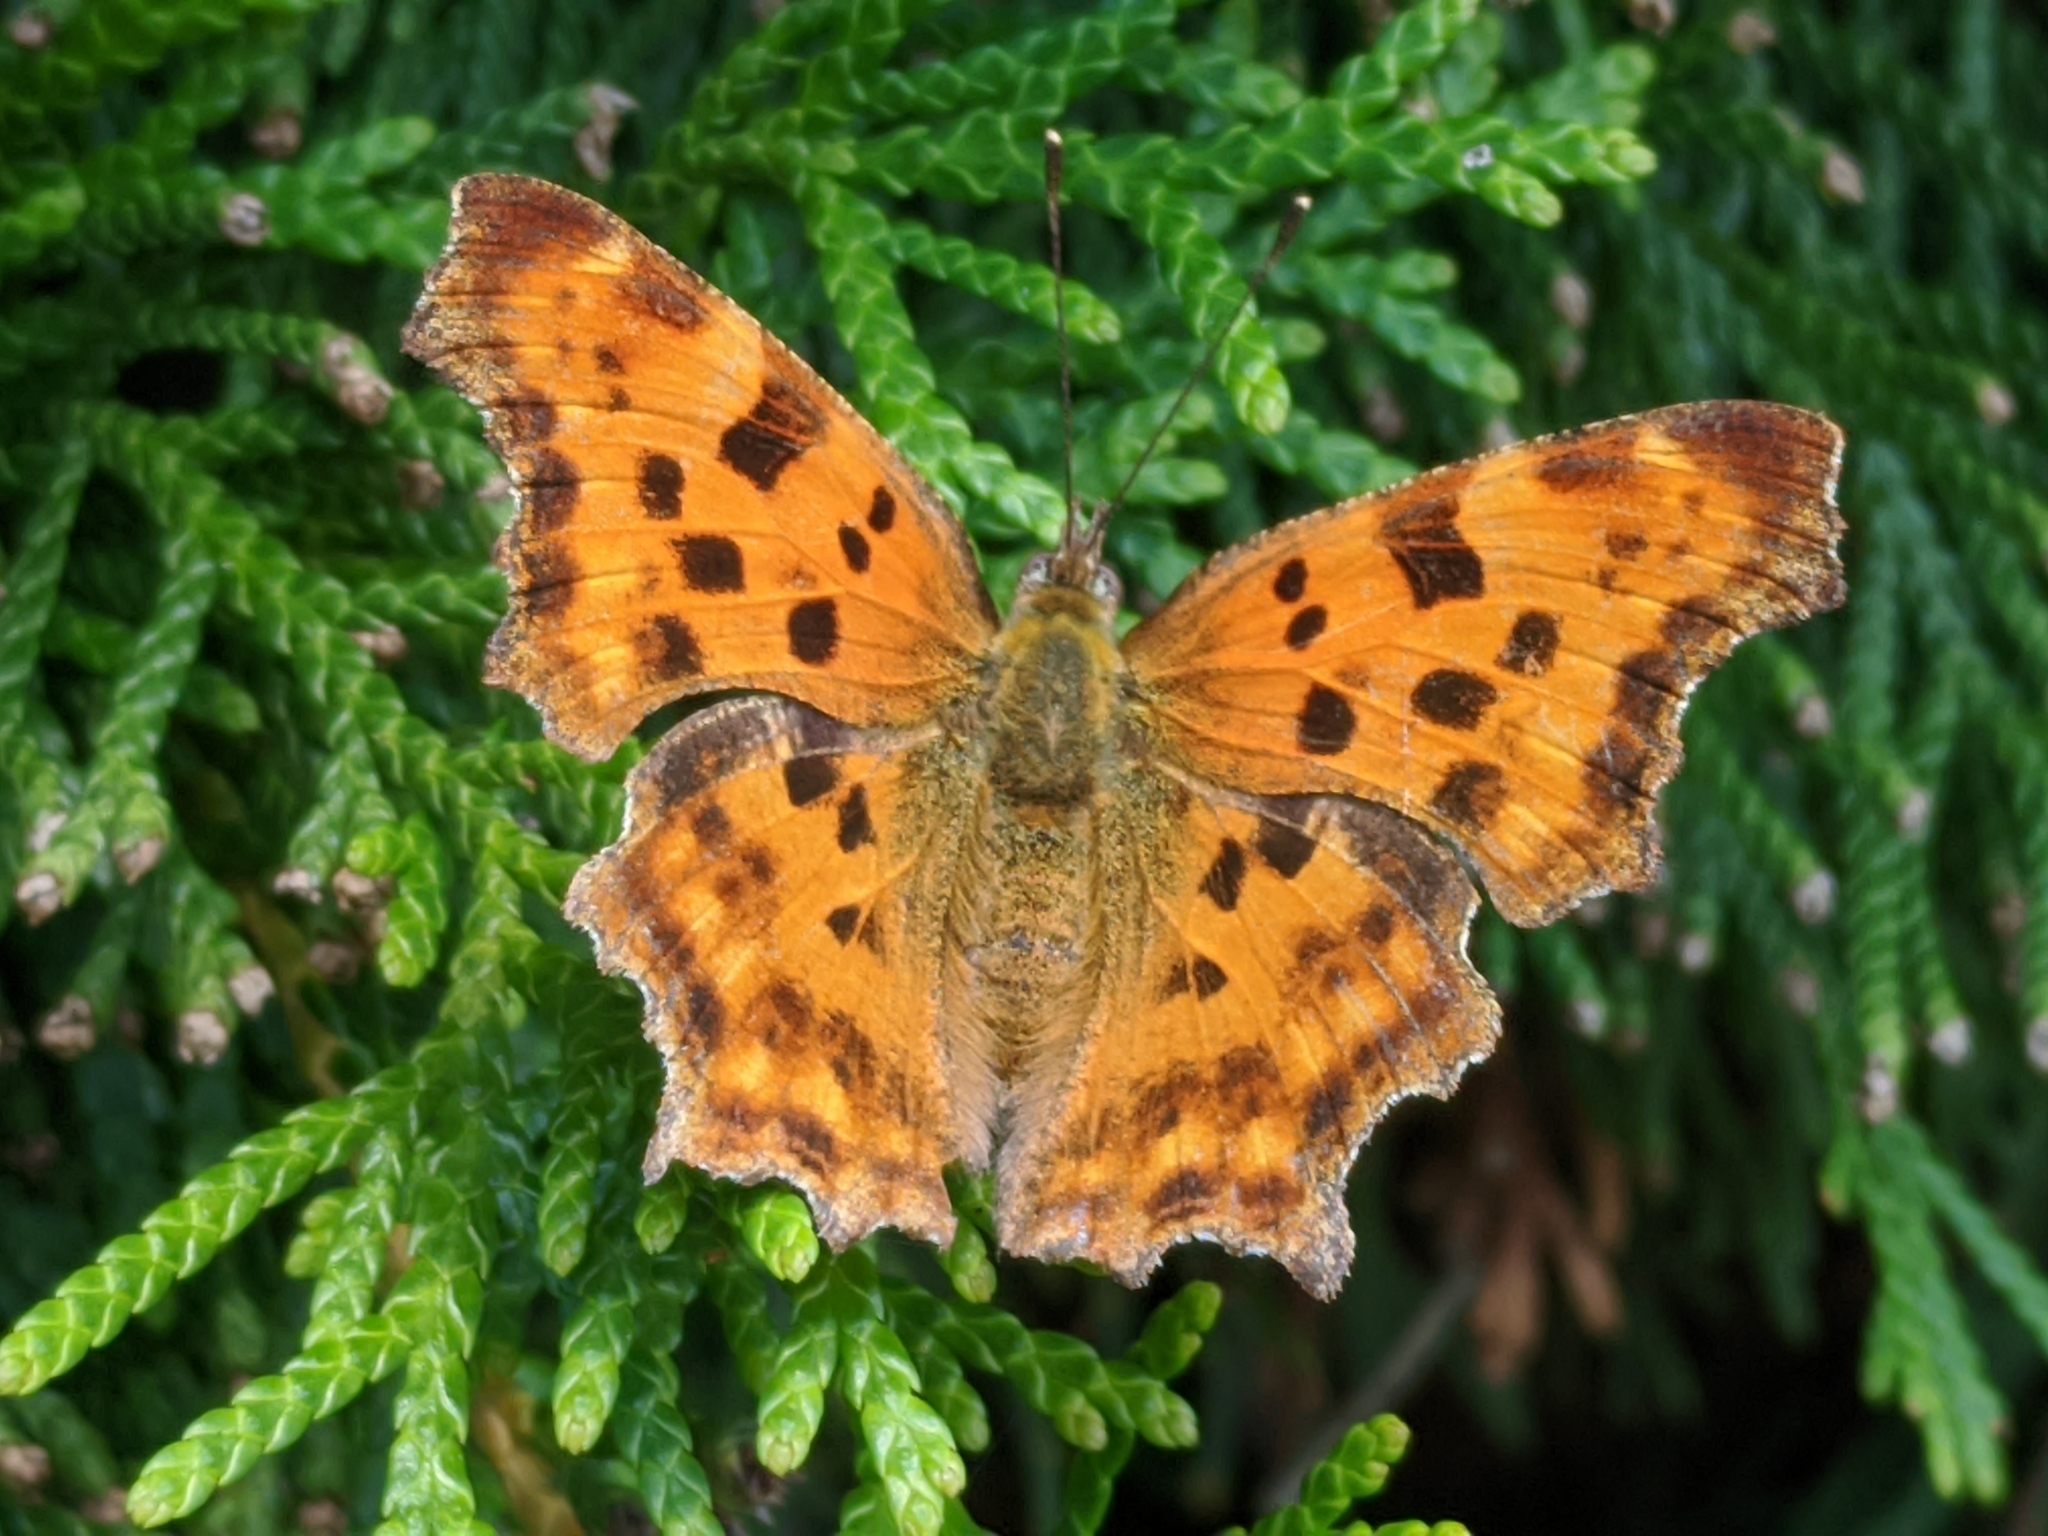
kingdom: Animalia
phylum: Arthropoda
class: Insecta
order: Lepidoptera
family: Nymphalidae
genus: Polygonia
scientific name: Polygonia c-album
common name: Comma
